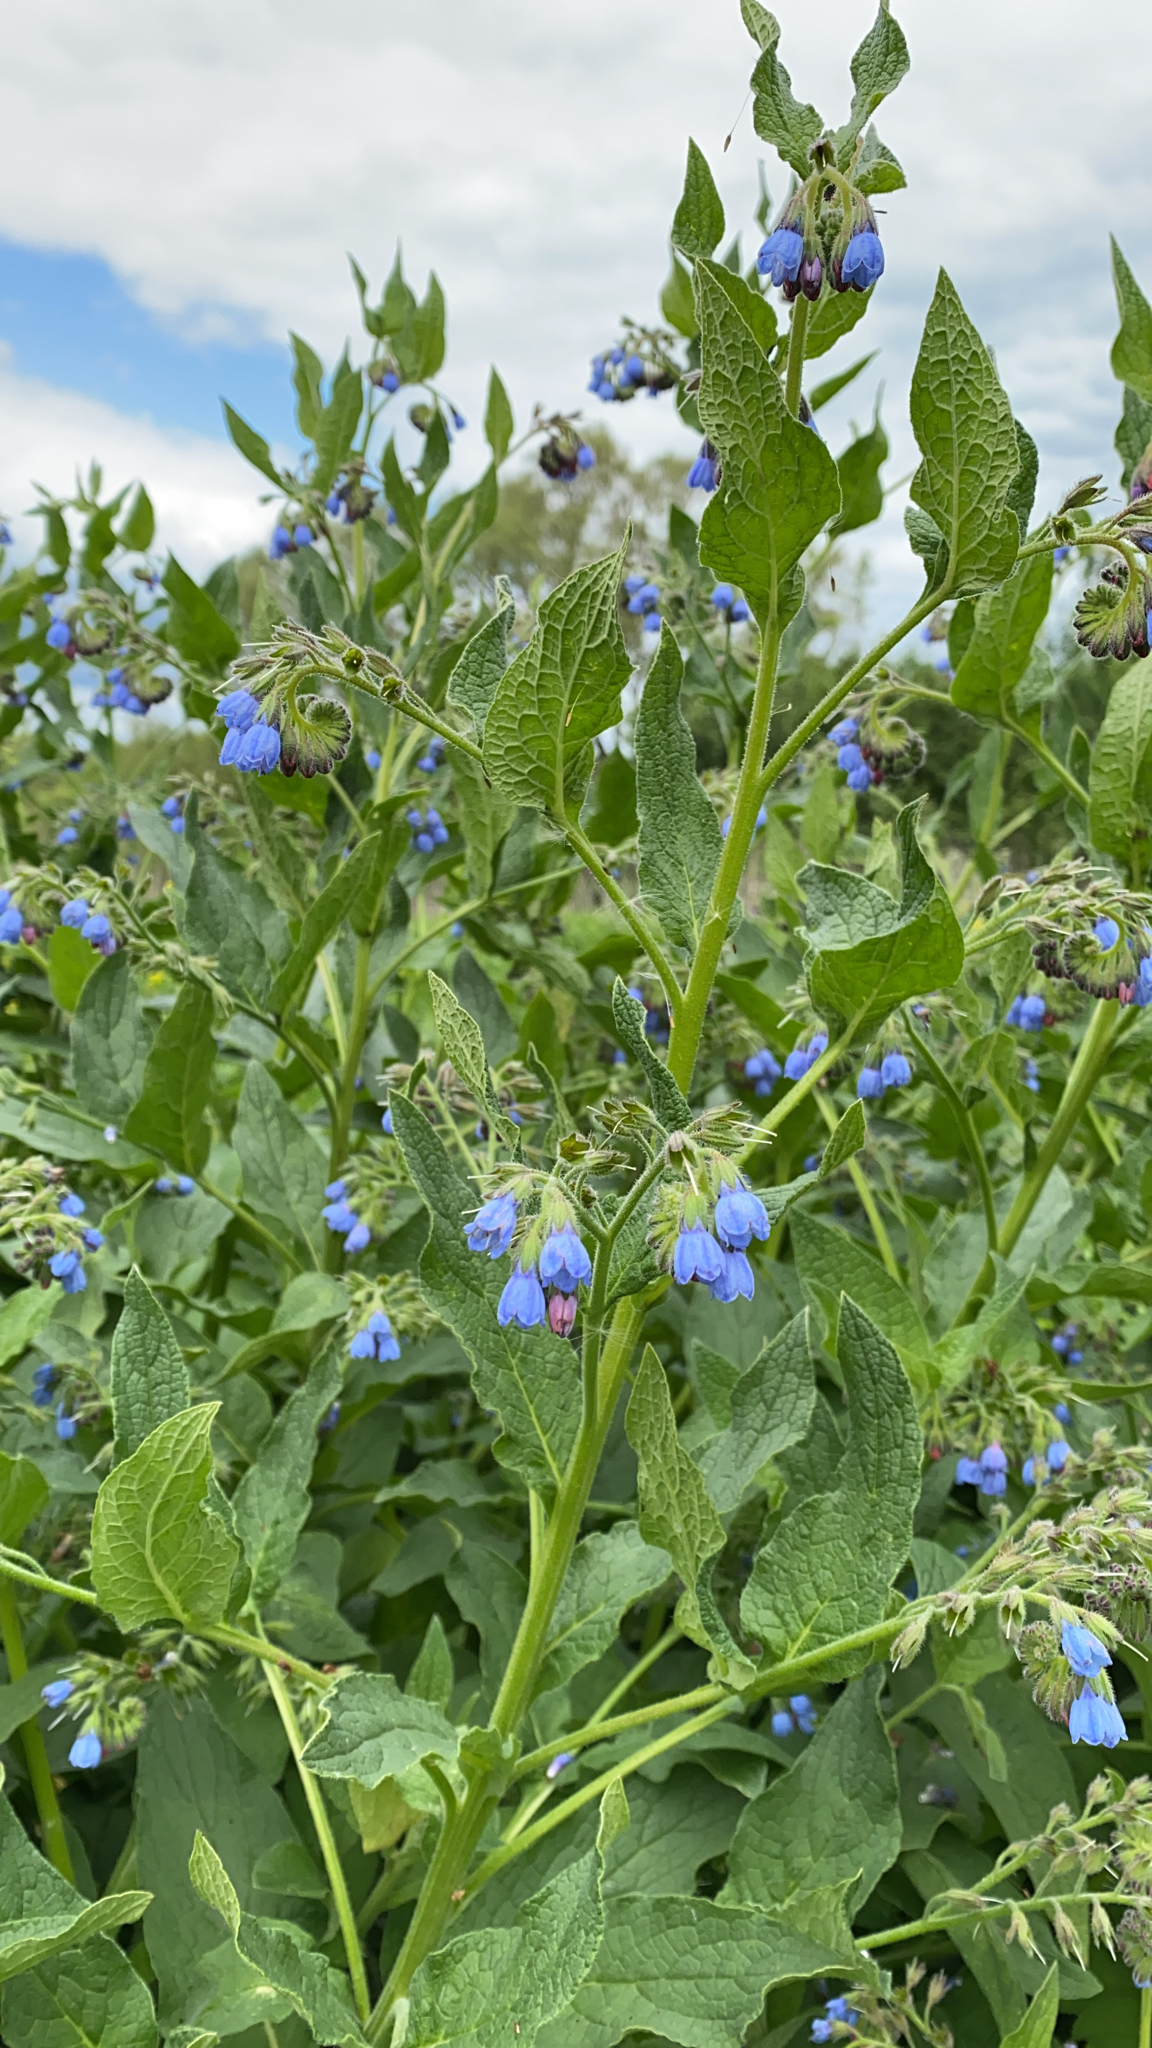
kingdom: Plantae
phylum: Tracheophyta
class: Magnoliopsida
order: Boraginales
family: Boraginaceae
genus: Symphytum
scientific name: Symphytum caucasicum
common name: Caucasian comfrey
